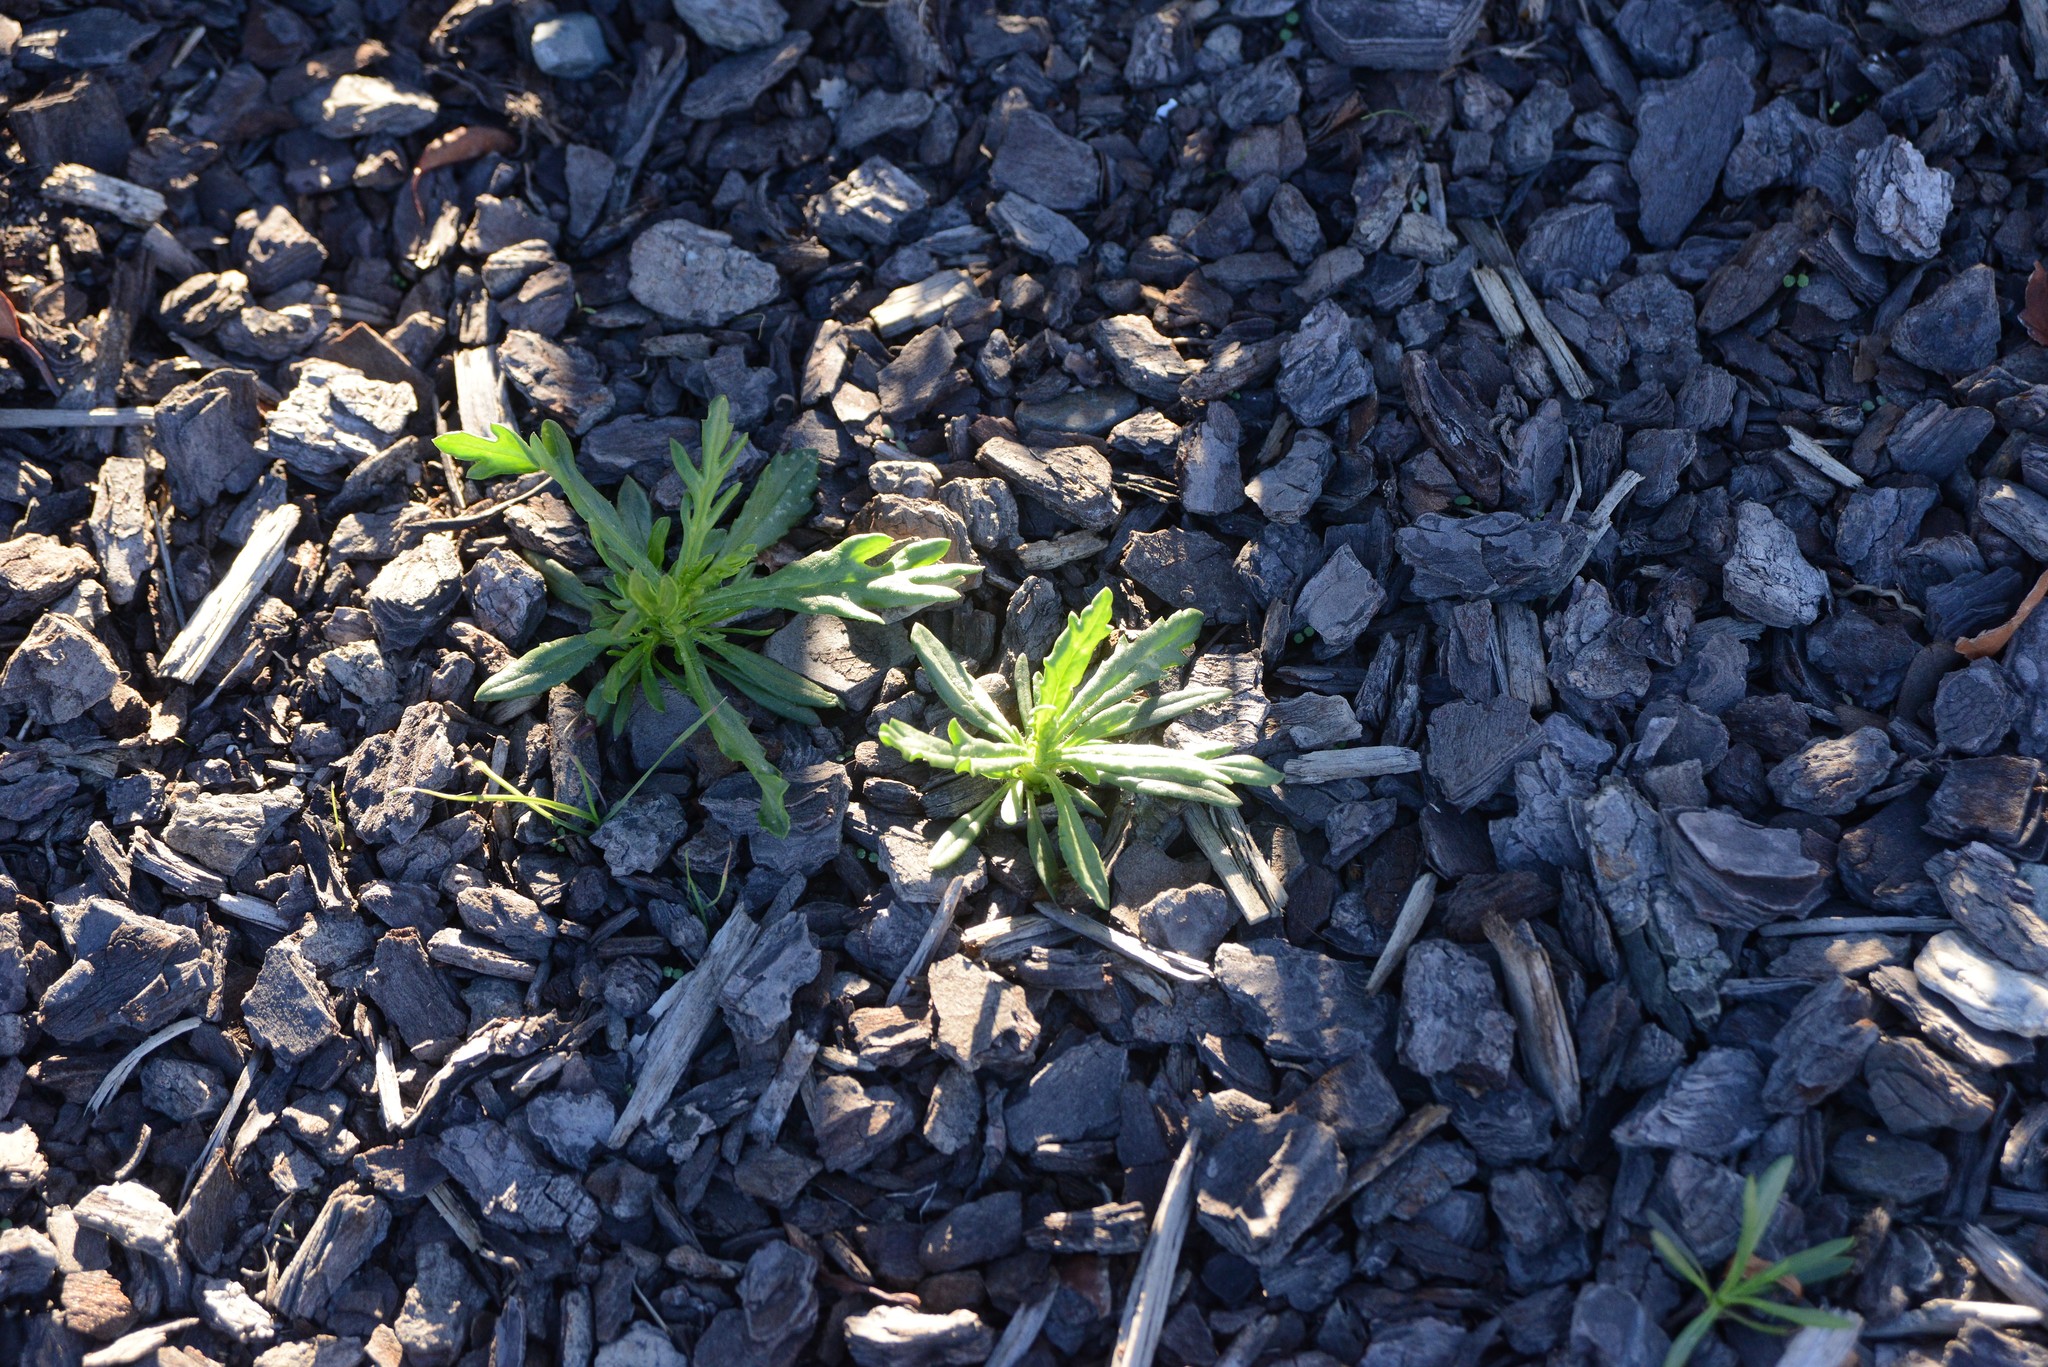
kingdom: Plantae
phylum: Tracheophyta
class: Magnoliopsida
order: Asterales
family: Asteraceae
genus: Senecio
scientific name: Senecio skirrhodon
